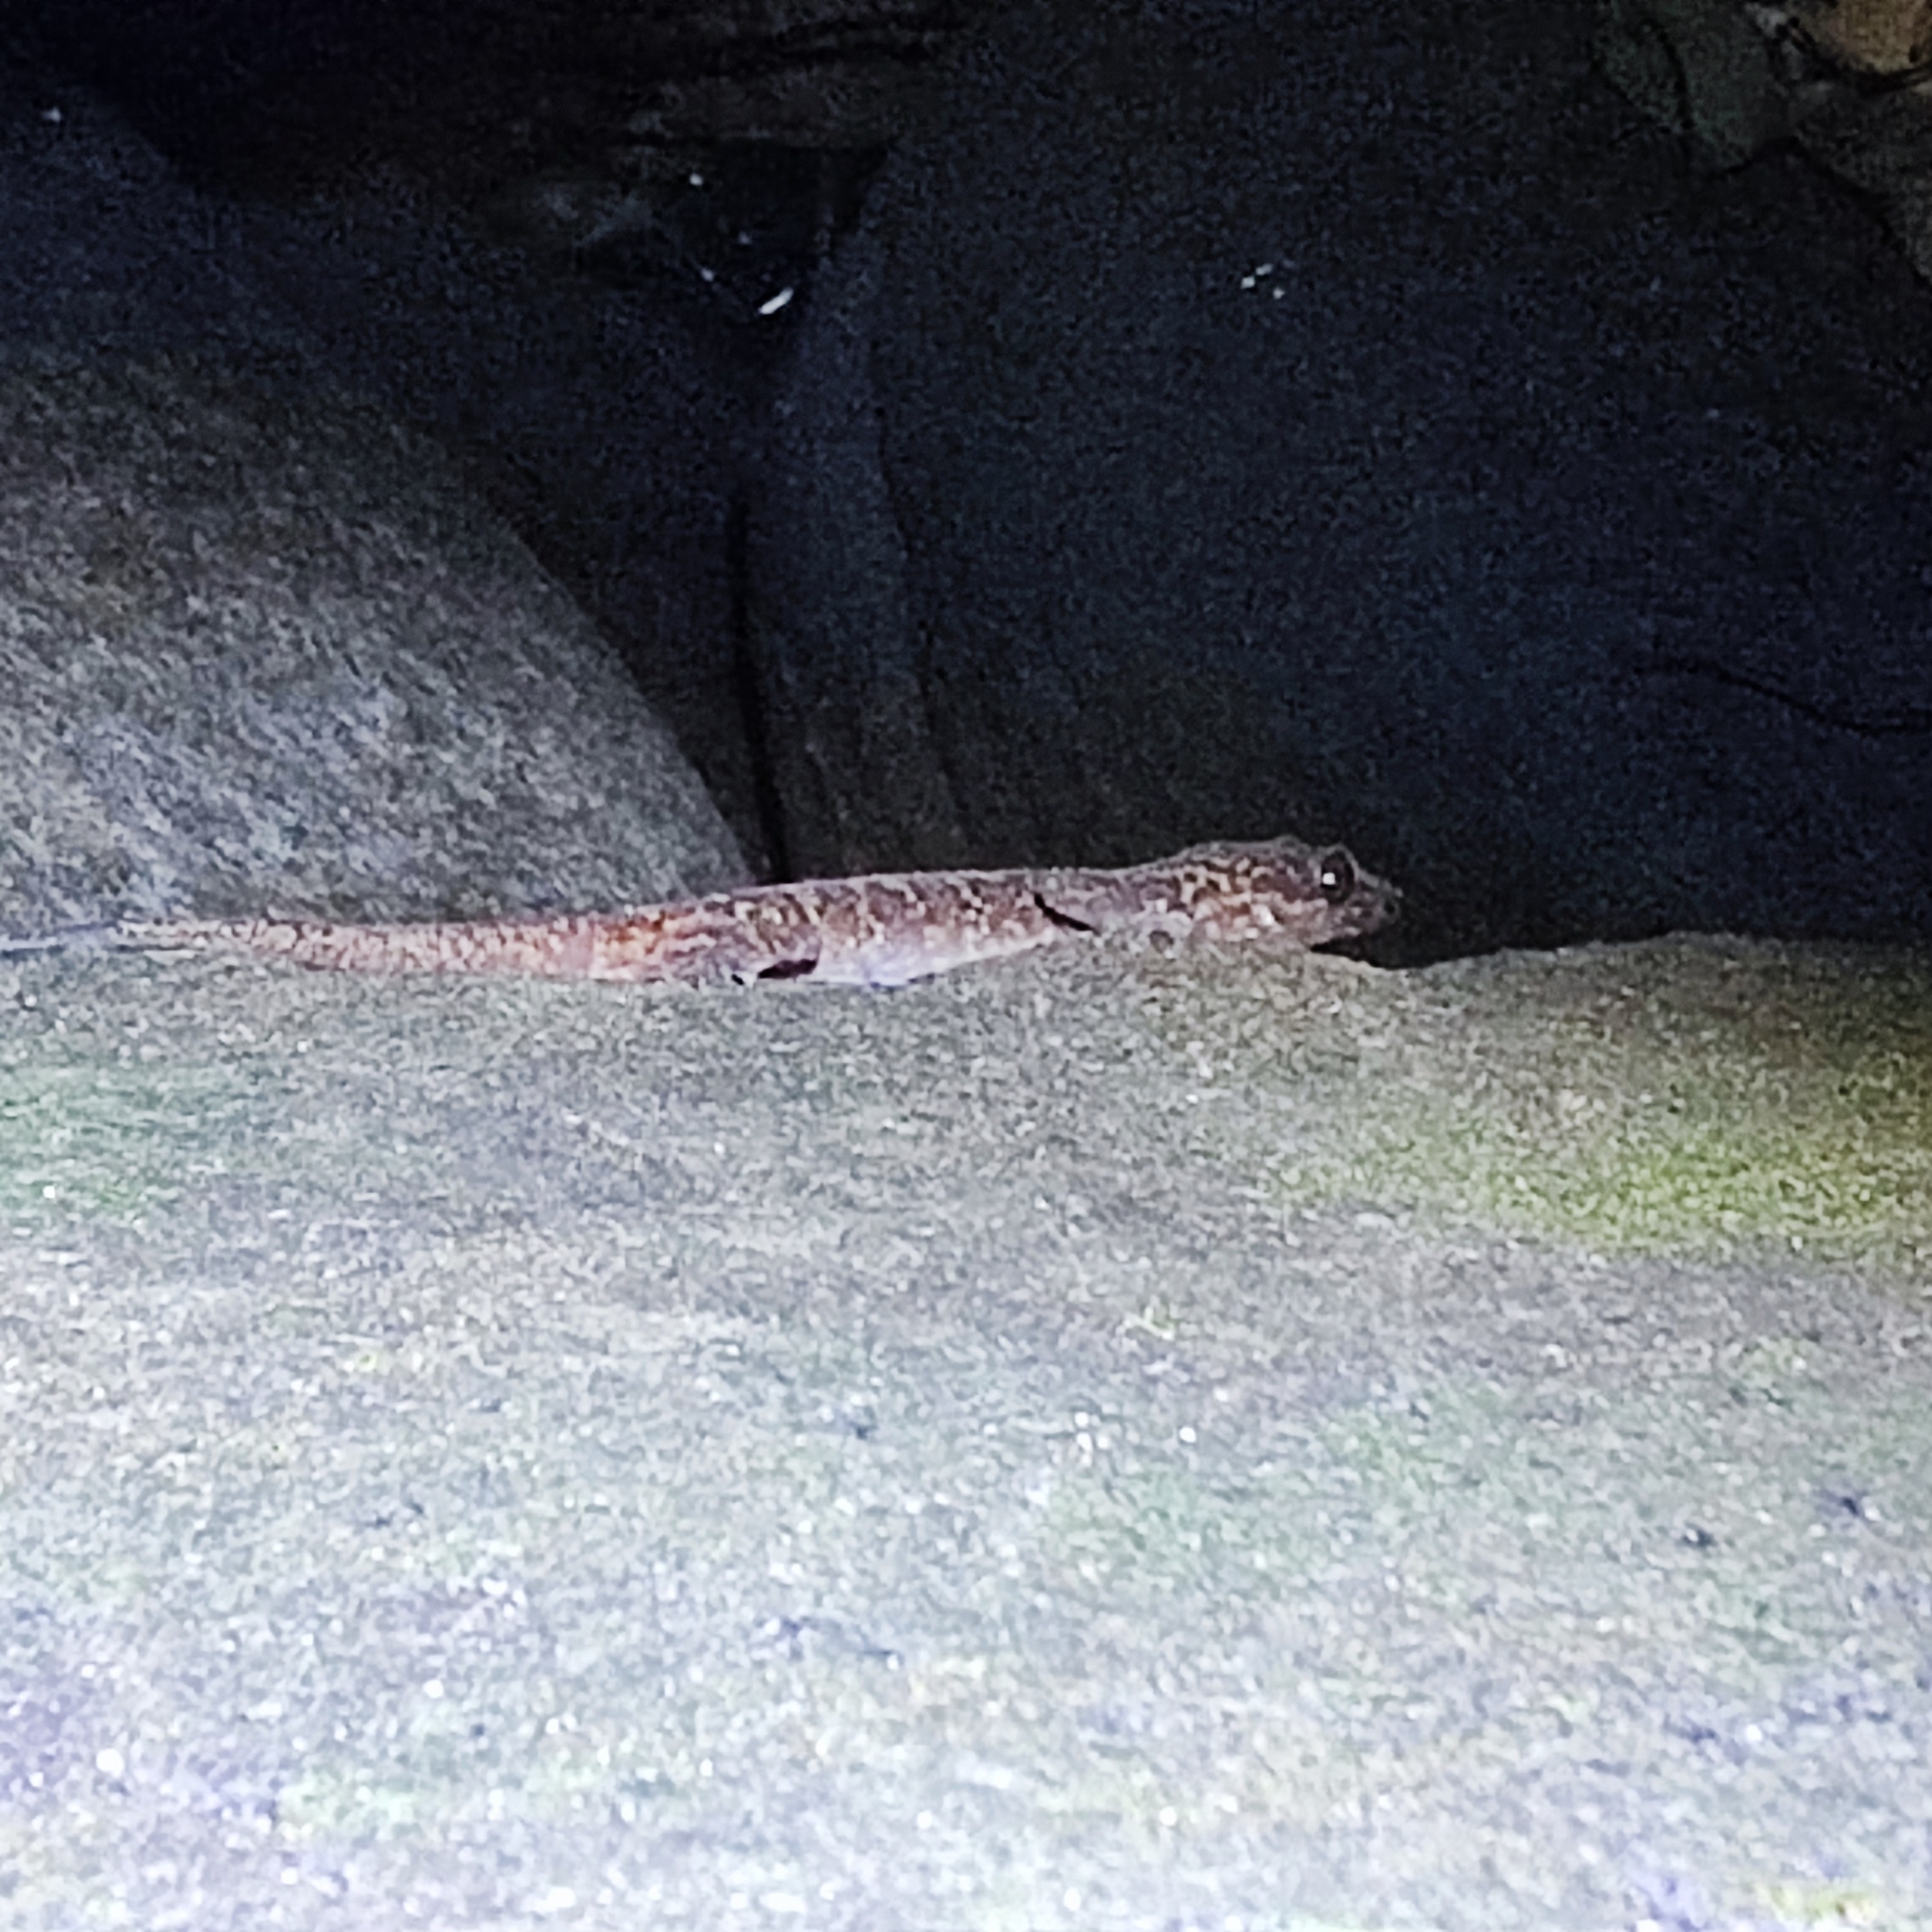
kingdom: Animalia
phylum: Chordata
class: Squamata
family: Gekkonidae
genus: Cyrtodactylus
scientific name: Cyrtodactylus condorensis
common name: Pulo condore bow-fingered gecko
